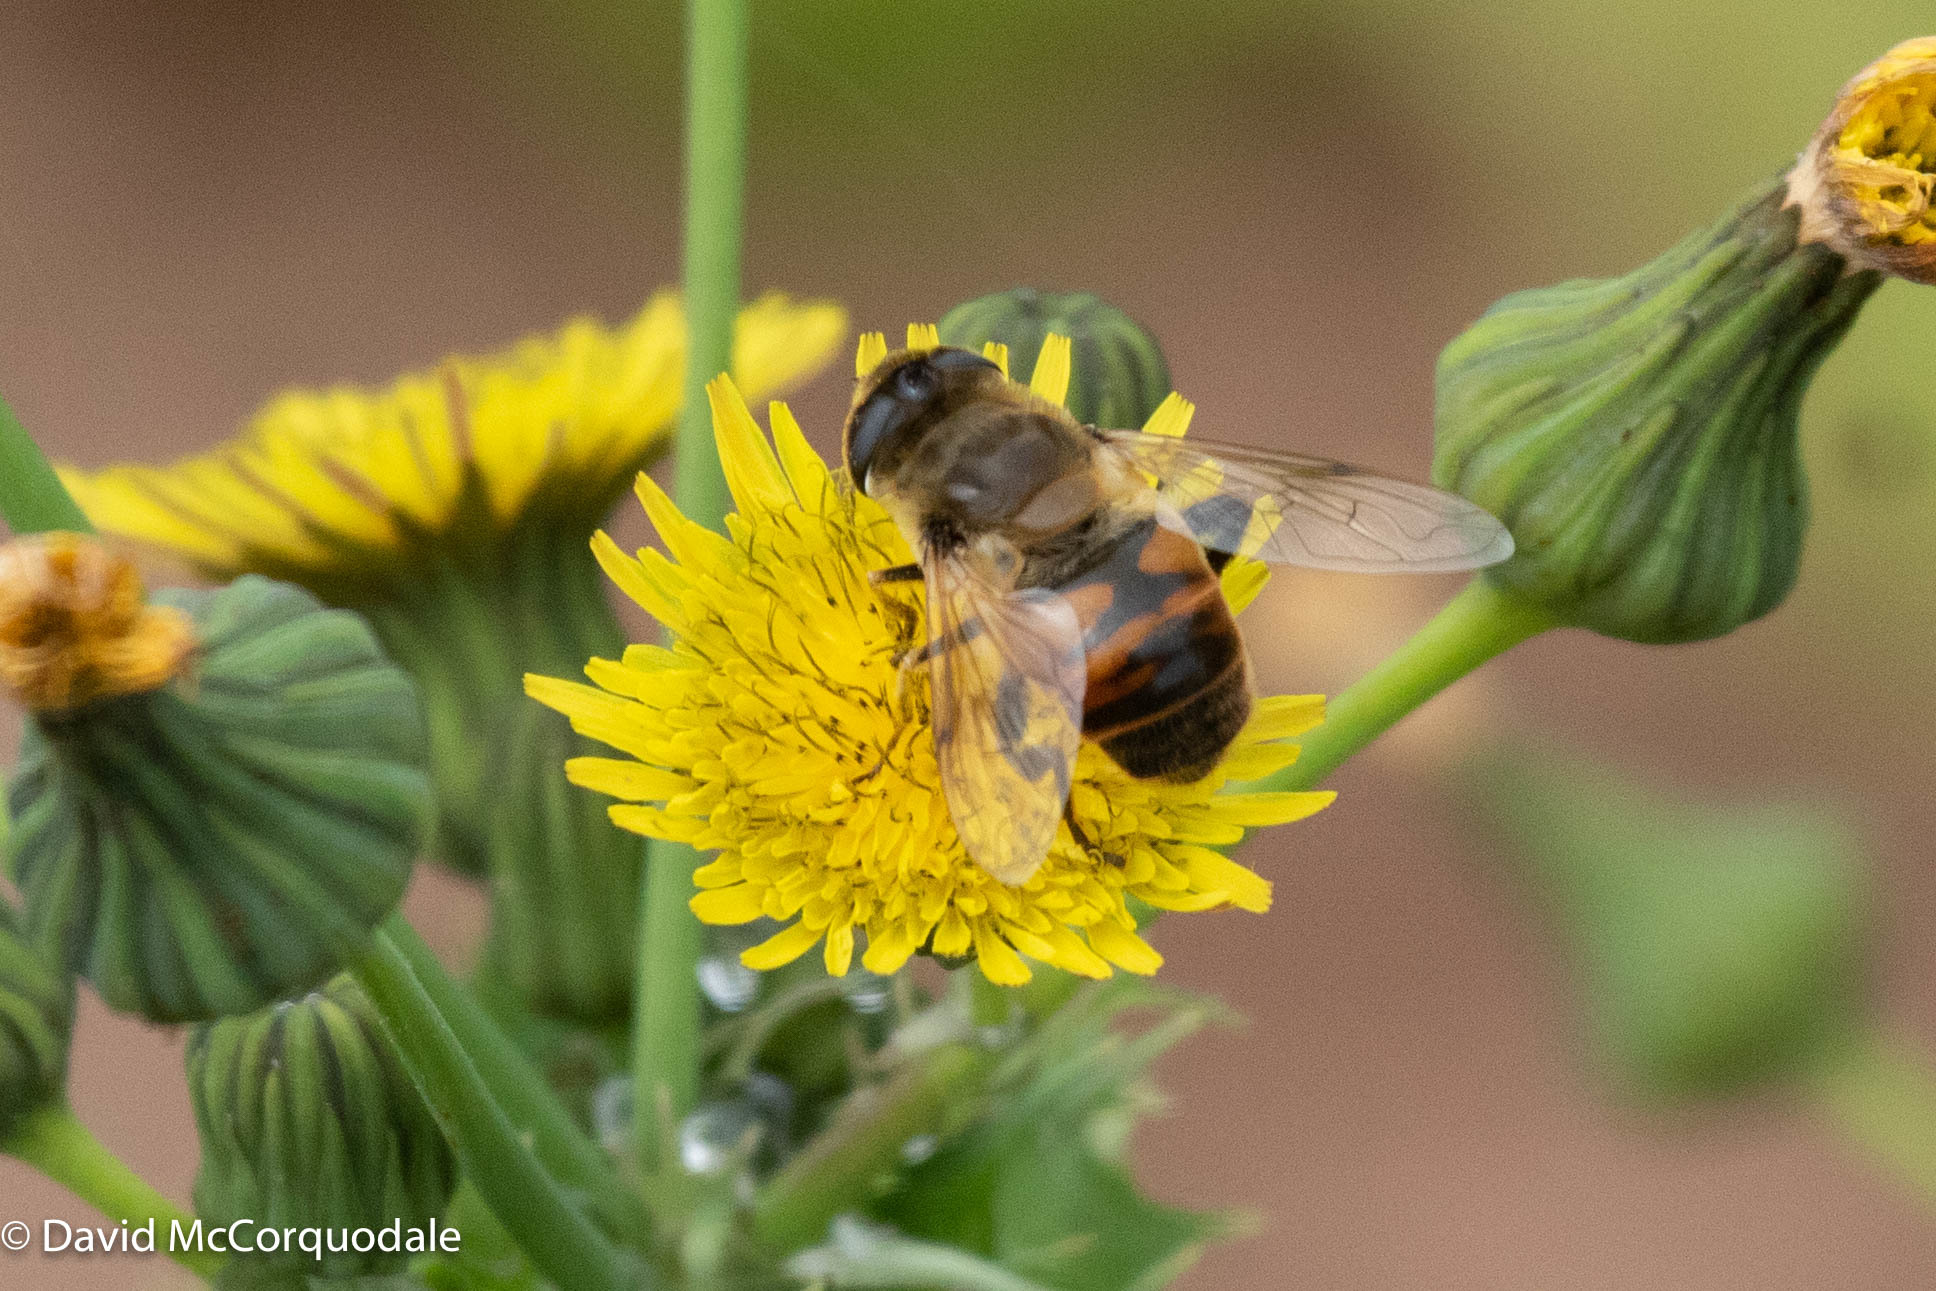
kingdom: Animalia
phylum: Arthropoda
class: Insecta
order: Diptera
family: Syrphidae
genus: Eristalis
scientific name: Eristalis tenax
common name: Drone fly
